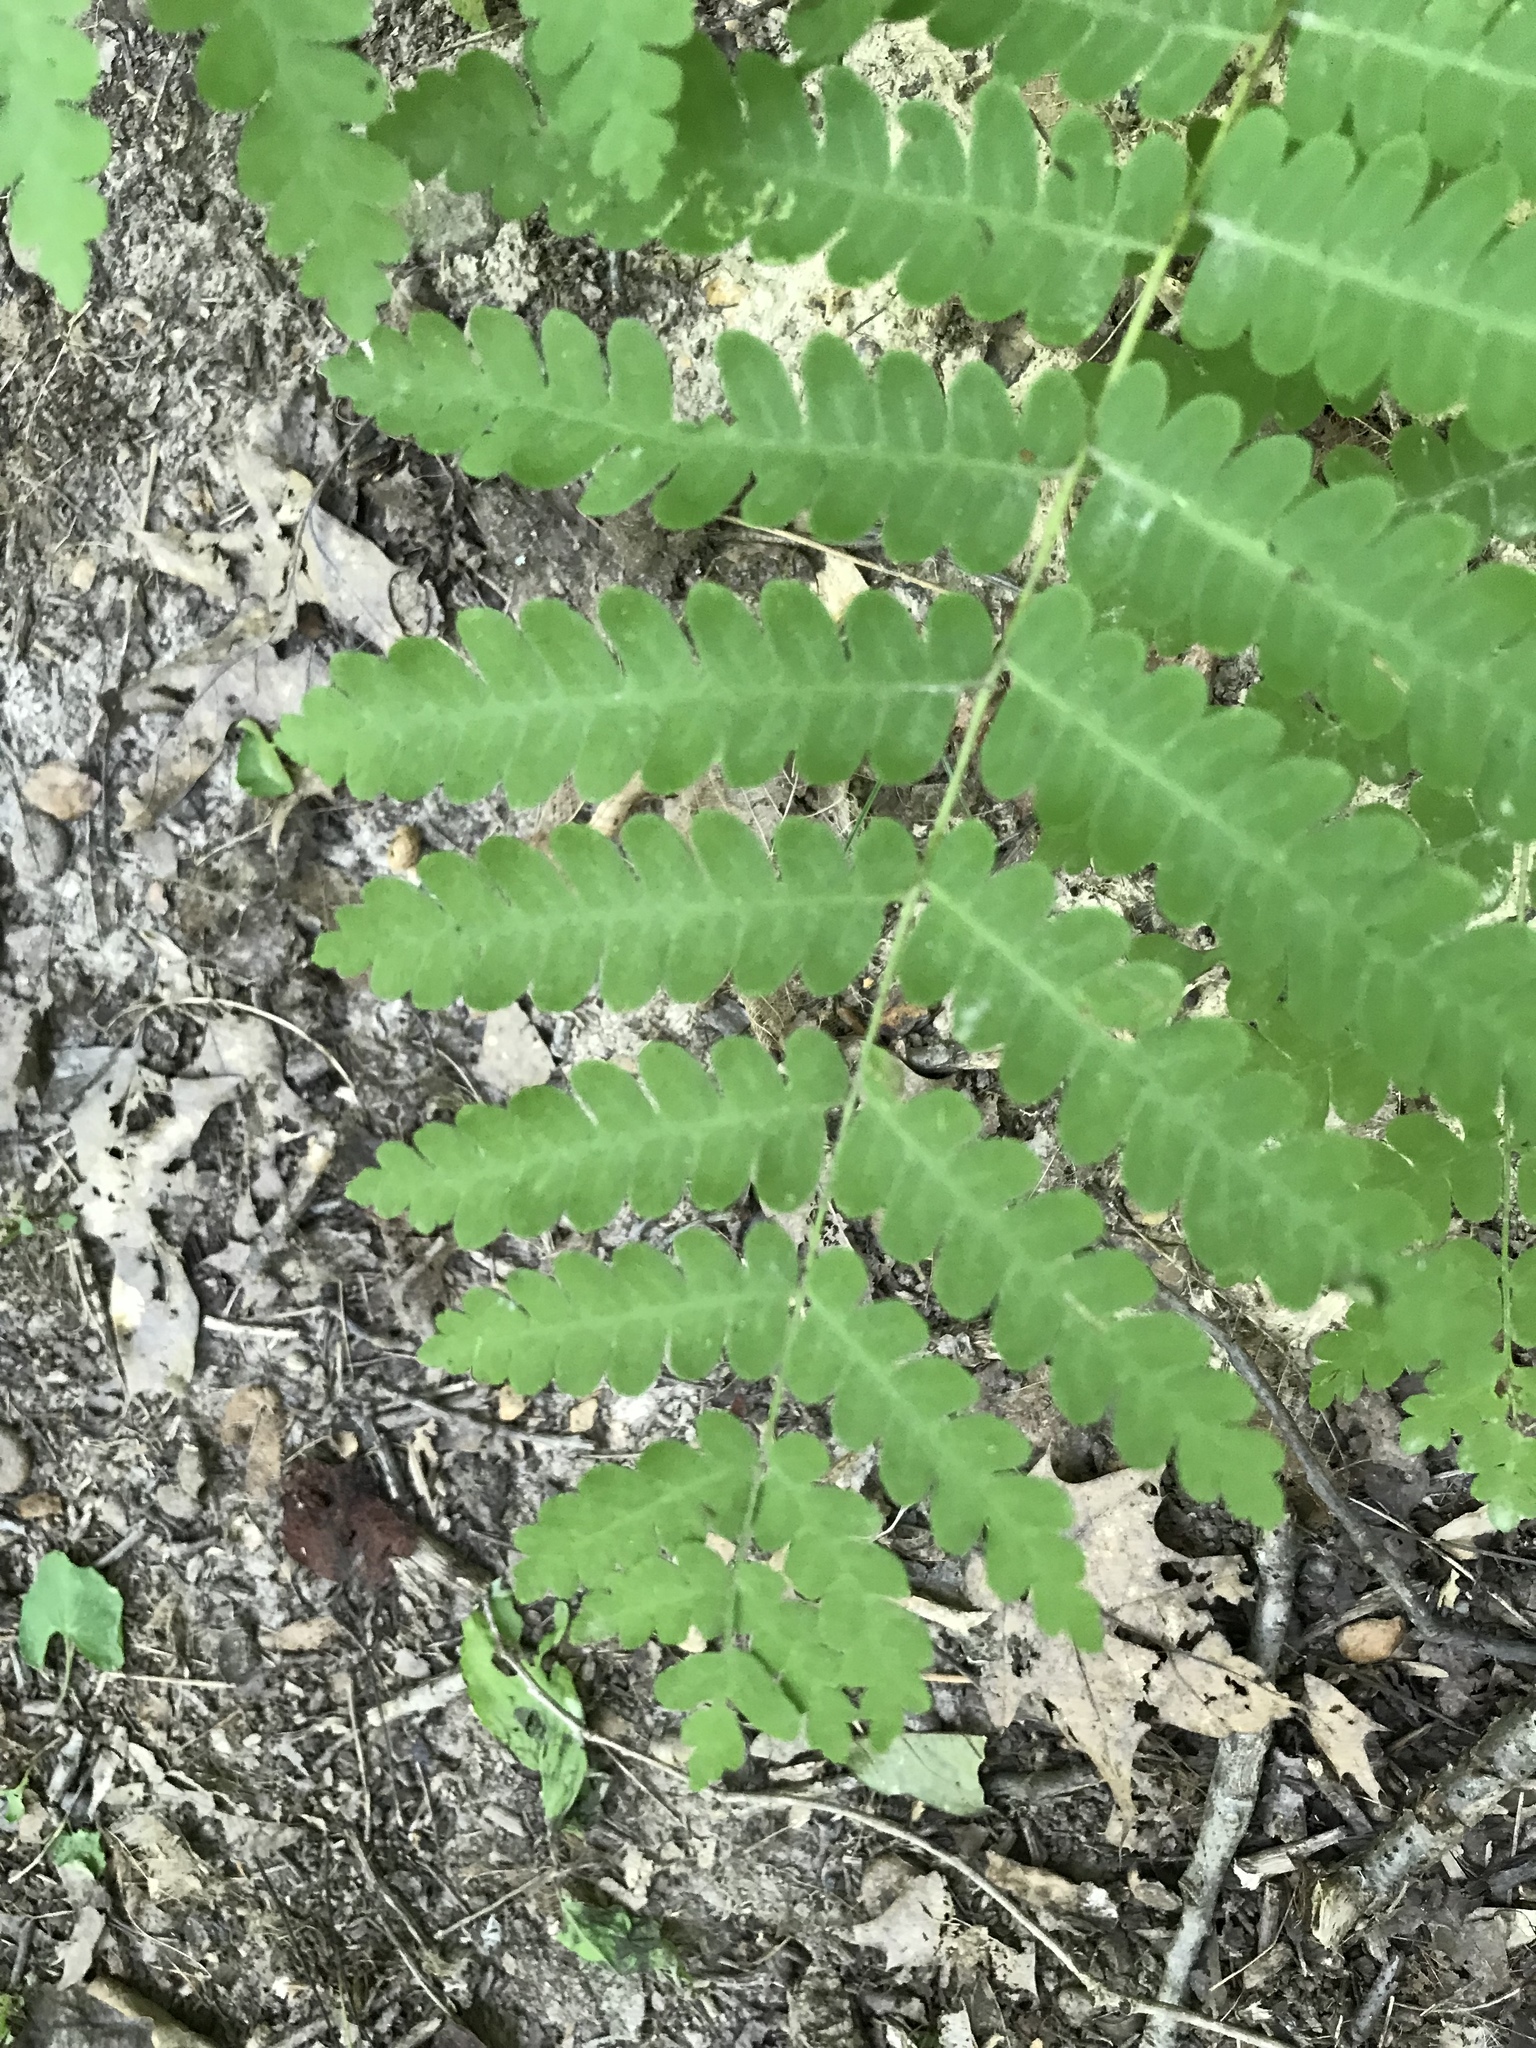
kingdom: Plantae
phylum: Tracheophyta
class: Polypodiopsida
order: Osmundales
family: Osmundaceae
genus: Claytosmunda
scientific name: Claytosmunda claytoniana
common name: Clayton's fern
